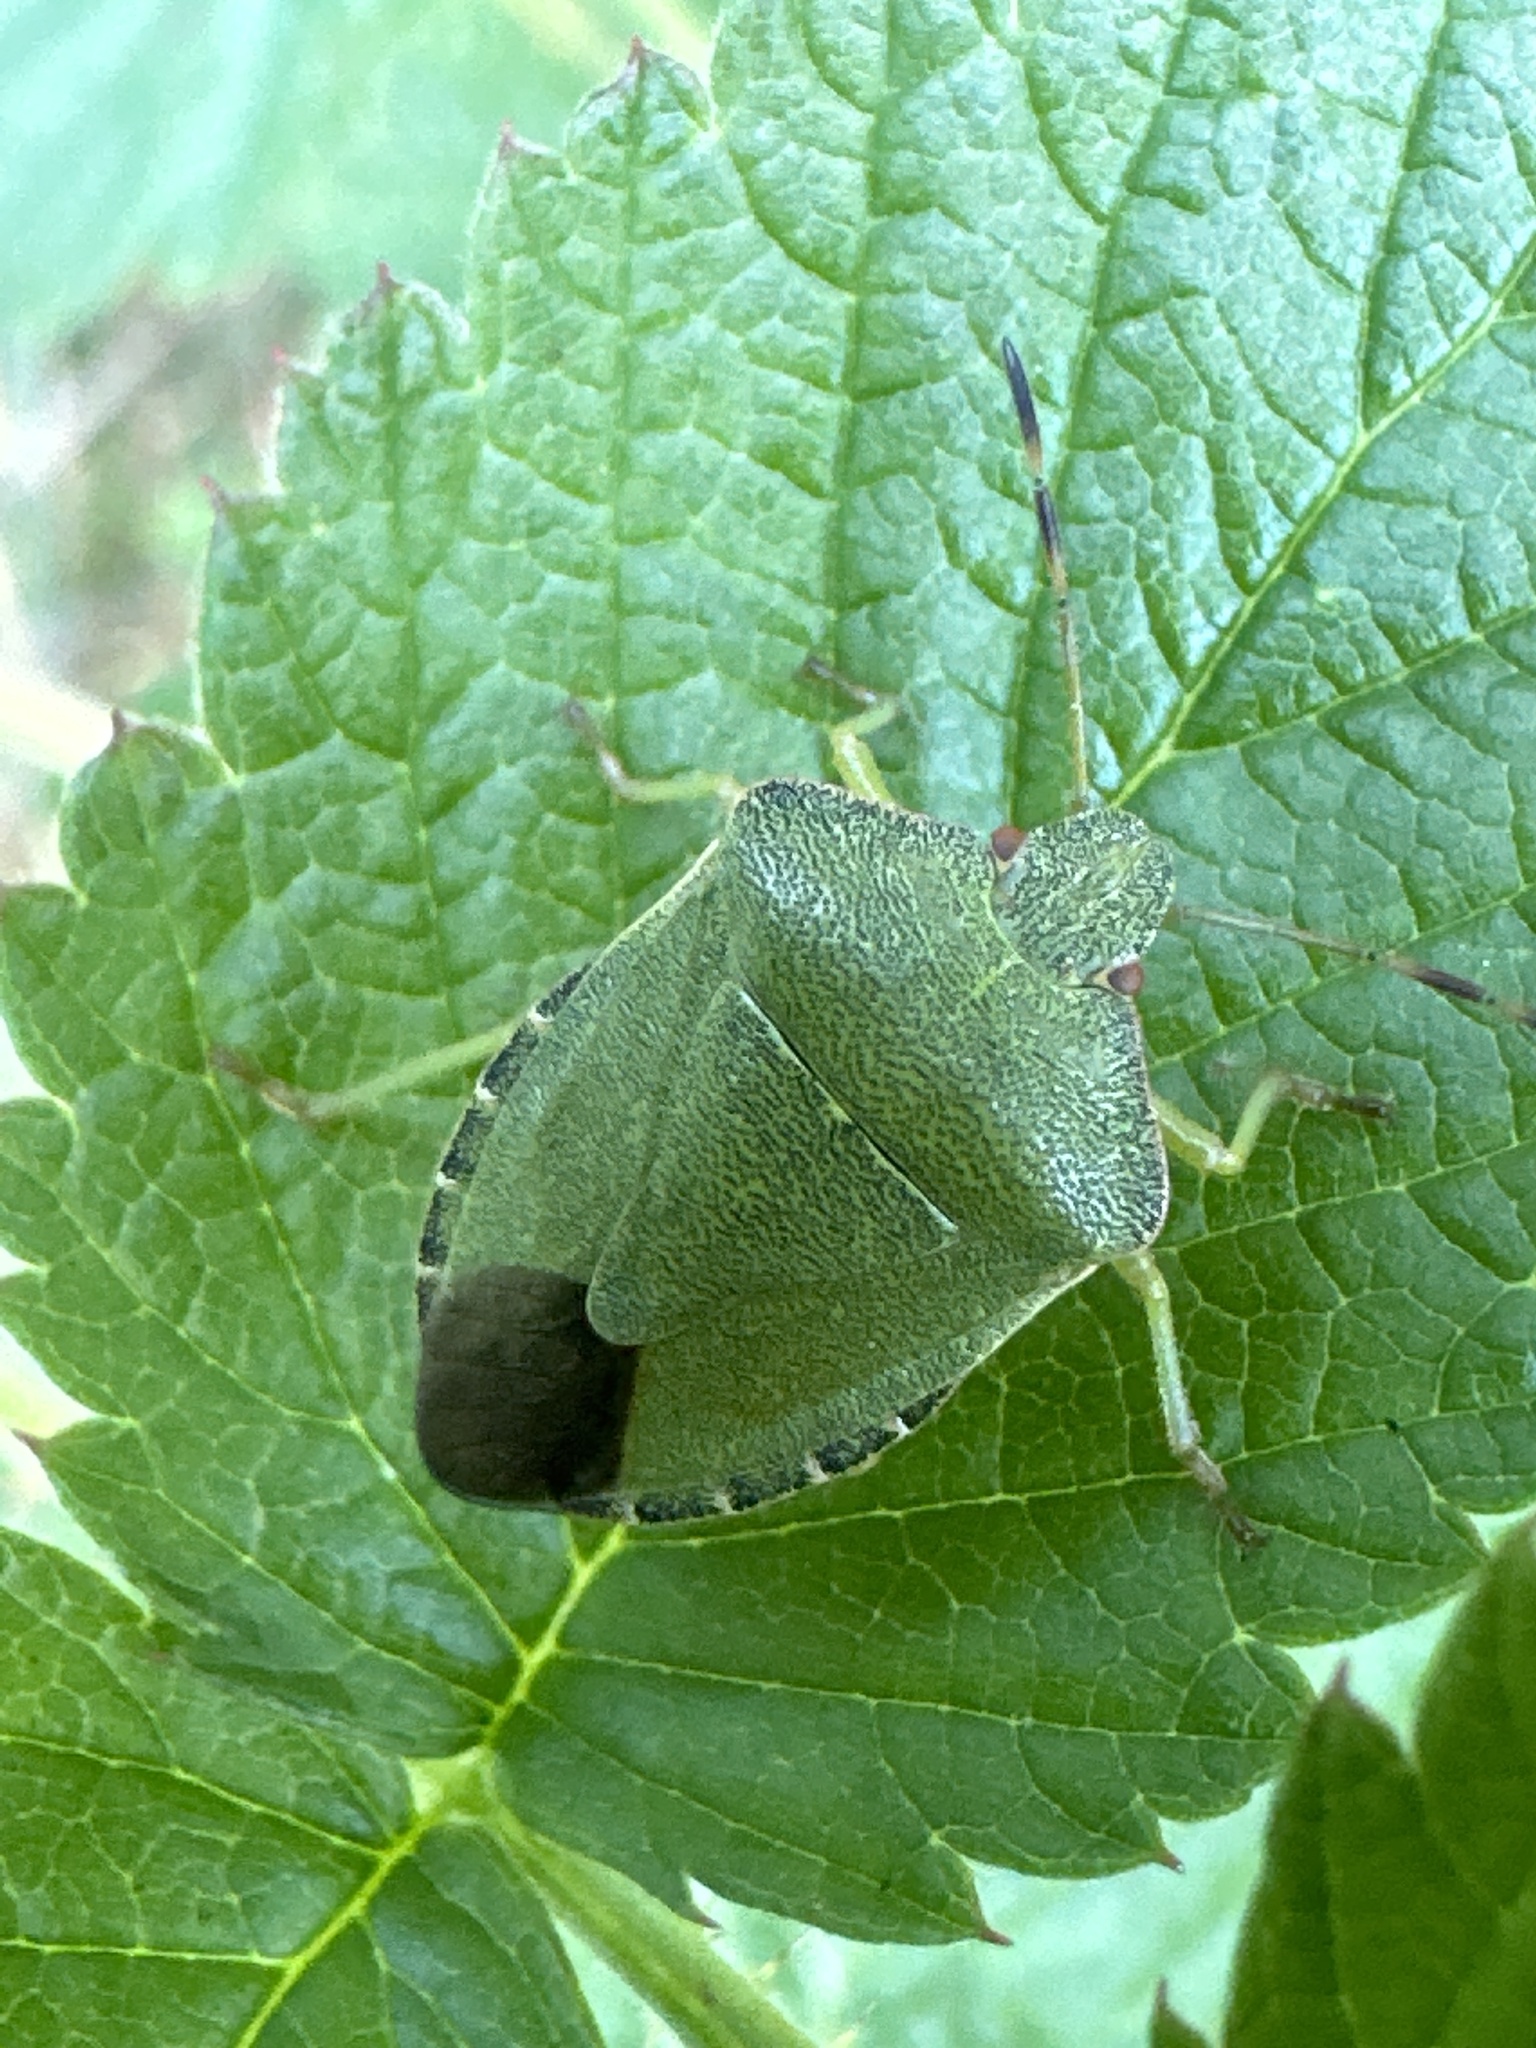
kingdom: Animalia
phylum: Arthropoda
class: Insecta
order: Hemiptera
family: Pentatomidae
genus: Palomena
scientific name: Palomena prasina
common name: Green shieldbug
